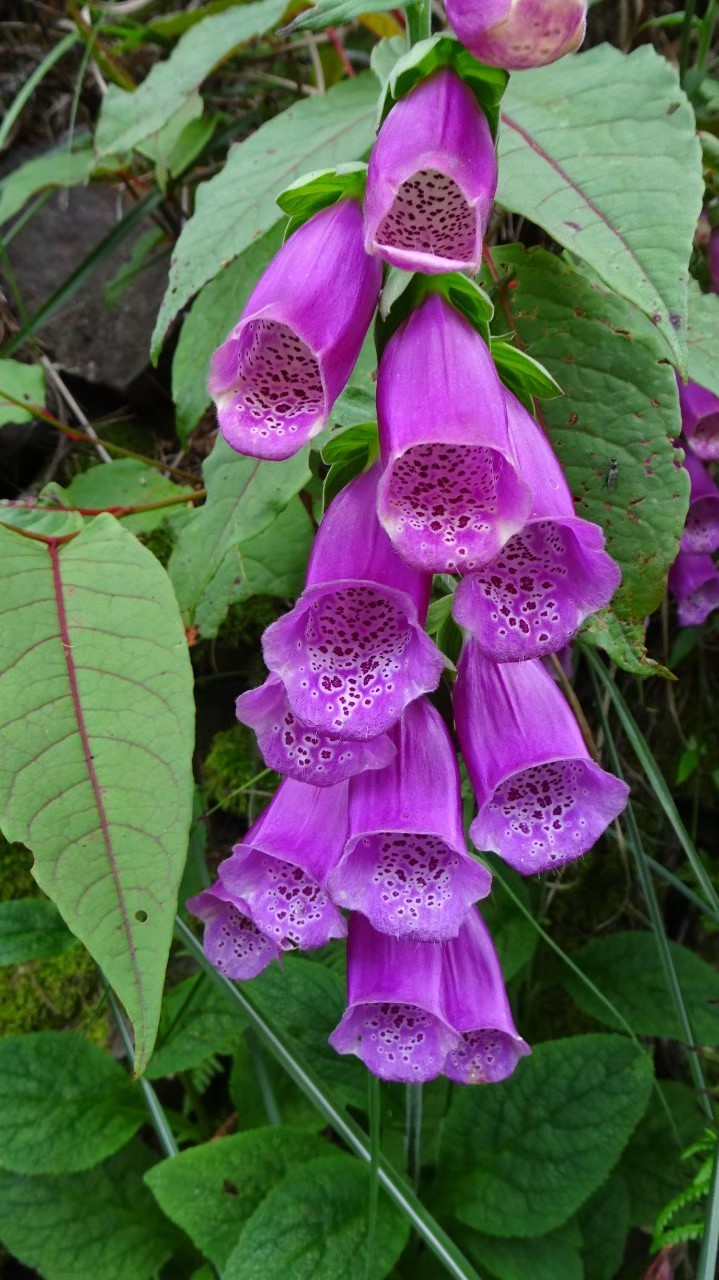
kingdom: Plantae
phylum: Tracheophyta
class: Magnoliopsida
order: Lamiales
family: Plantaginaceae
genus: Digitalis
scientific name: Digitalis purpurea
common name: Foxglove
